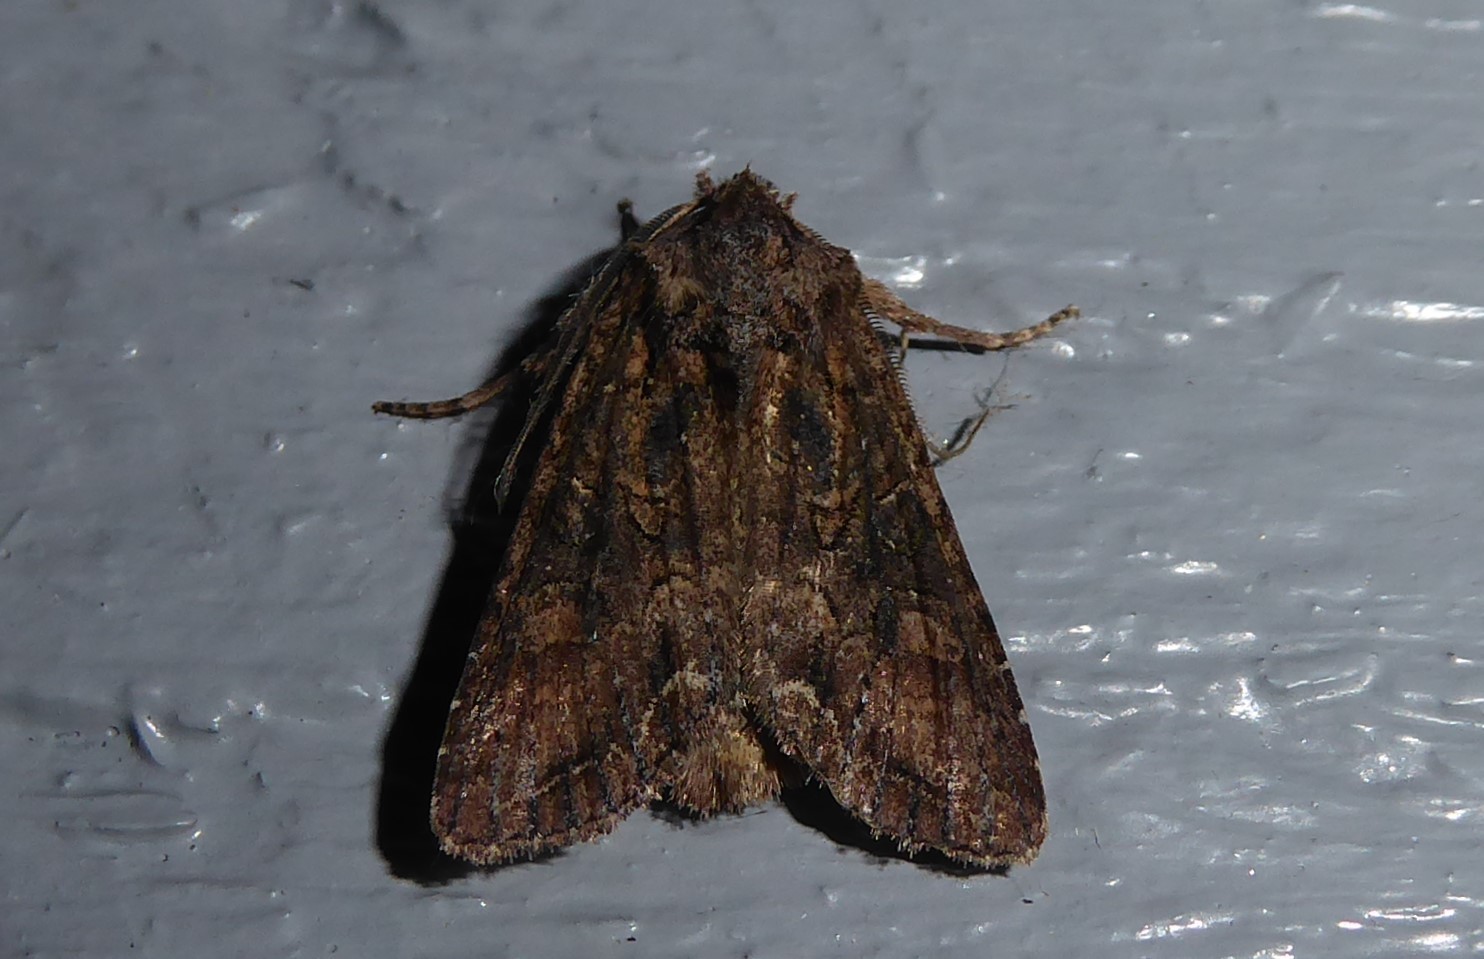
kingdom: Animalia
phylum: Arthropoda
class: Insecta
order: Lepidoptera
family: Noctuidae
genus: Ichneutica
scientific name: Ichneutica mutans
